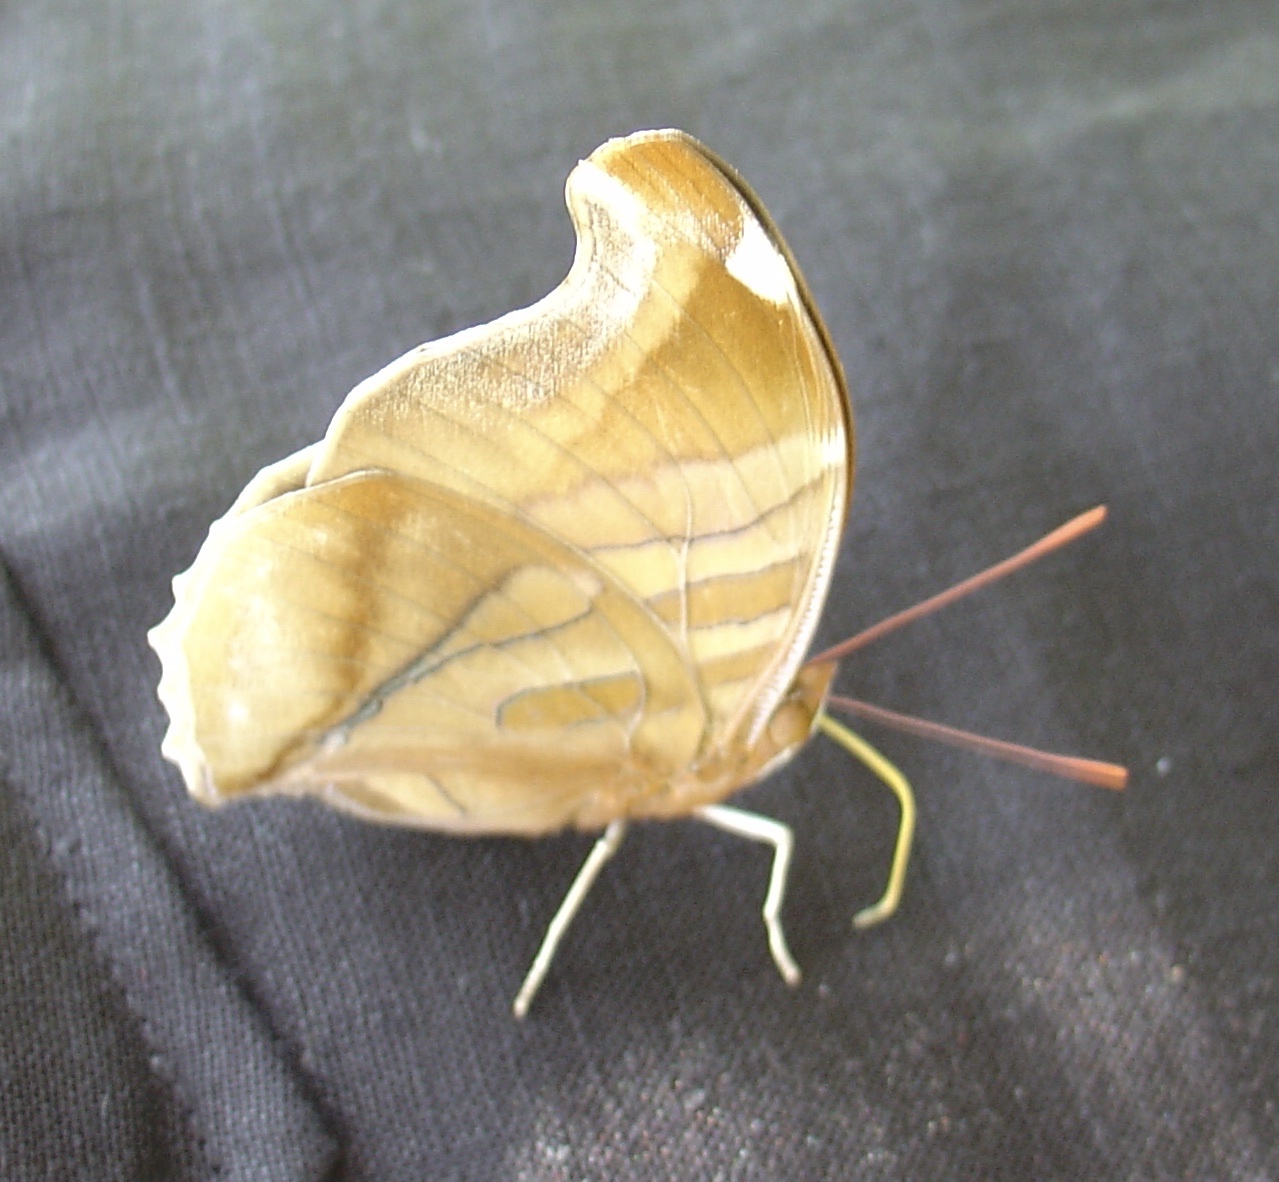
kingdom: Animalia
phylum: Arthropoda
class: Insecta
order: Lepidoptera
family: Nymphalidae
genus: Historis
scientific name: Historis odius
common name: Orion cecropian
